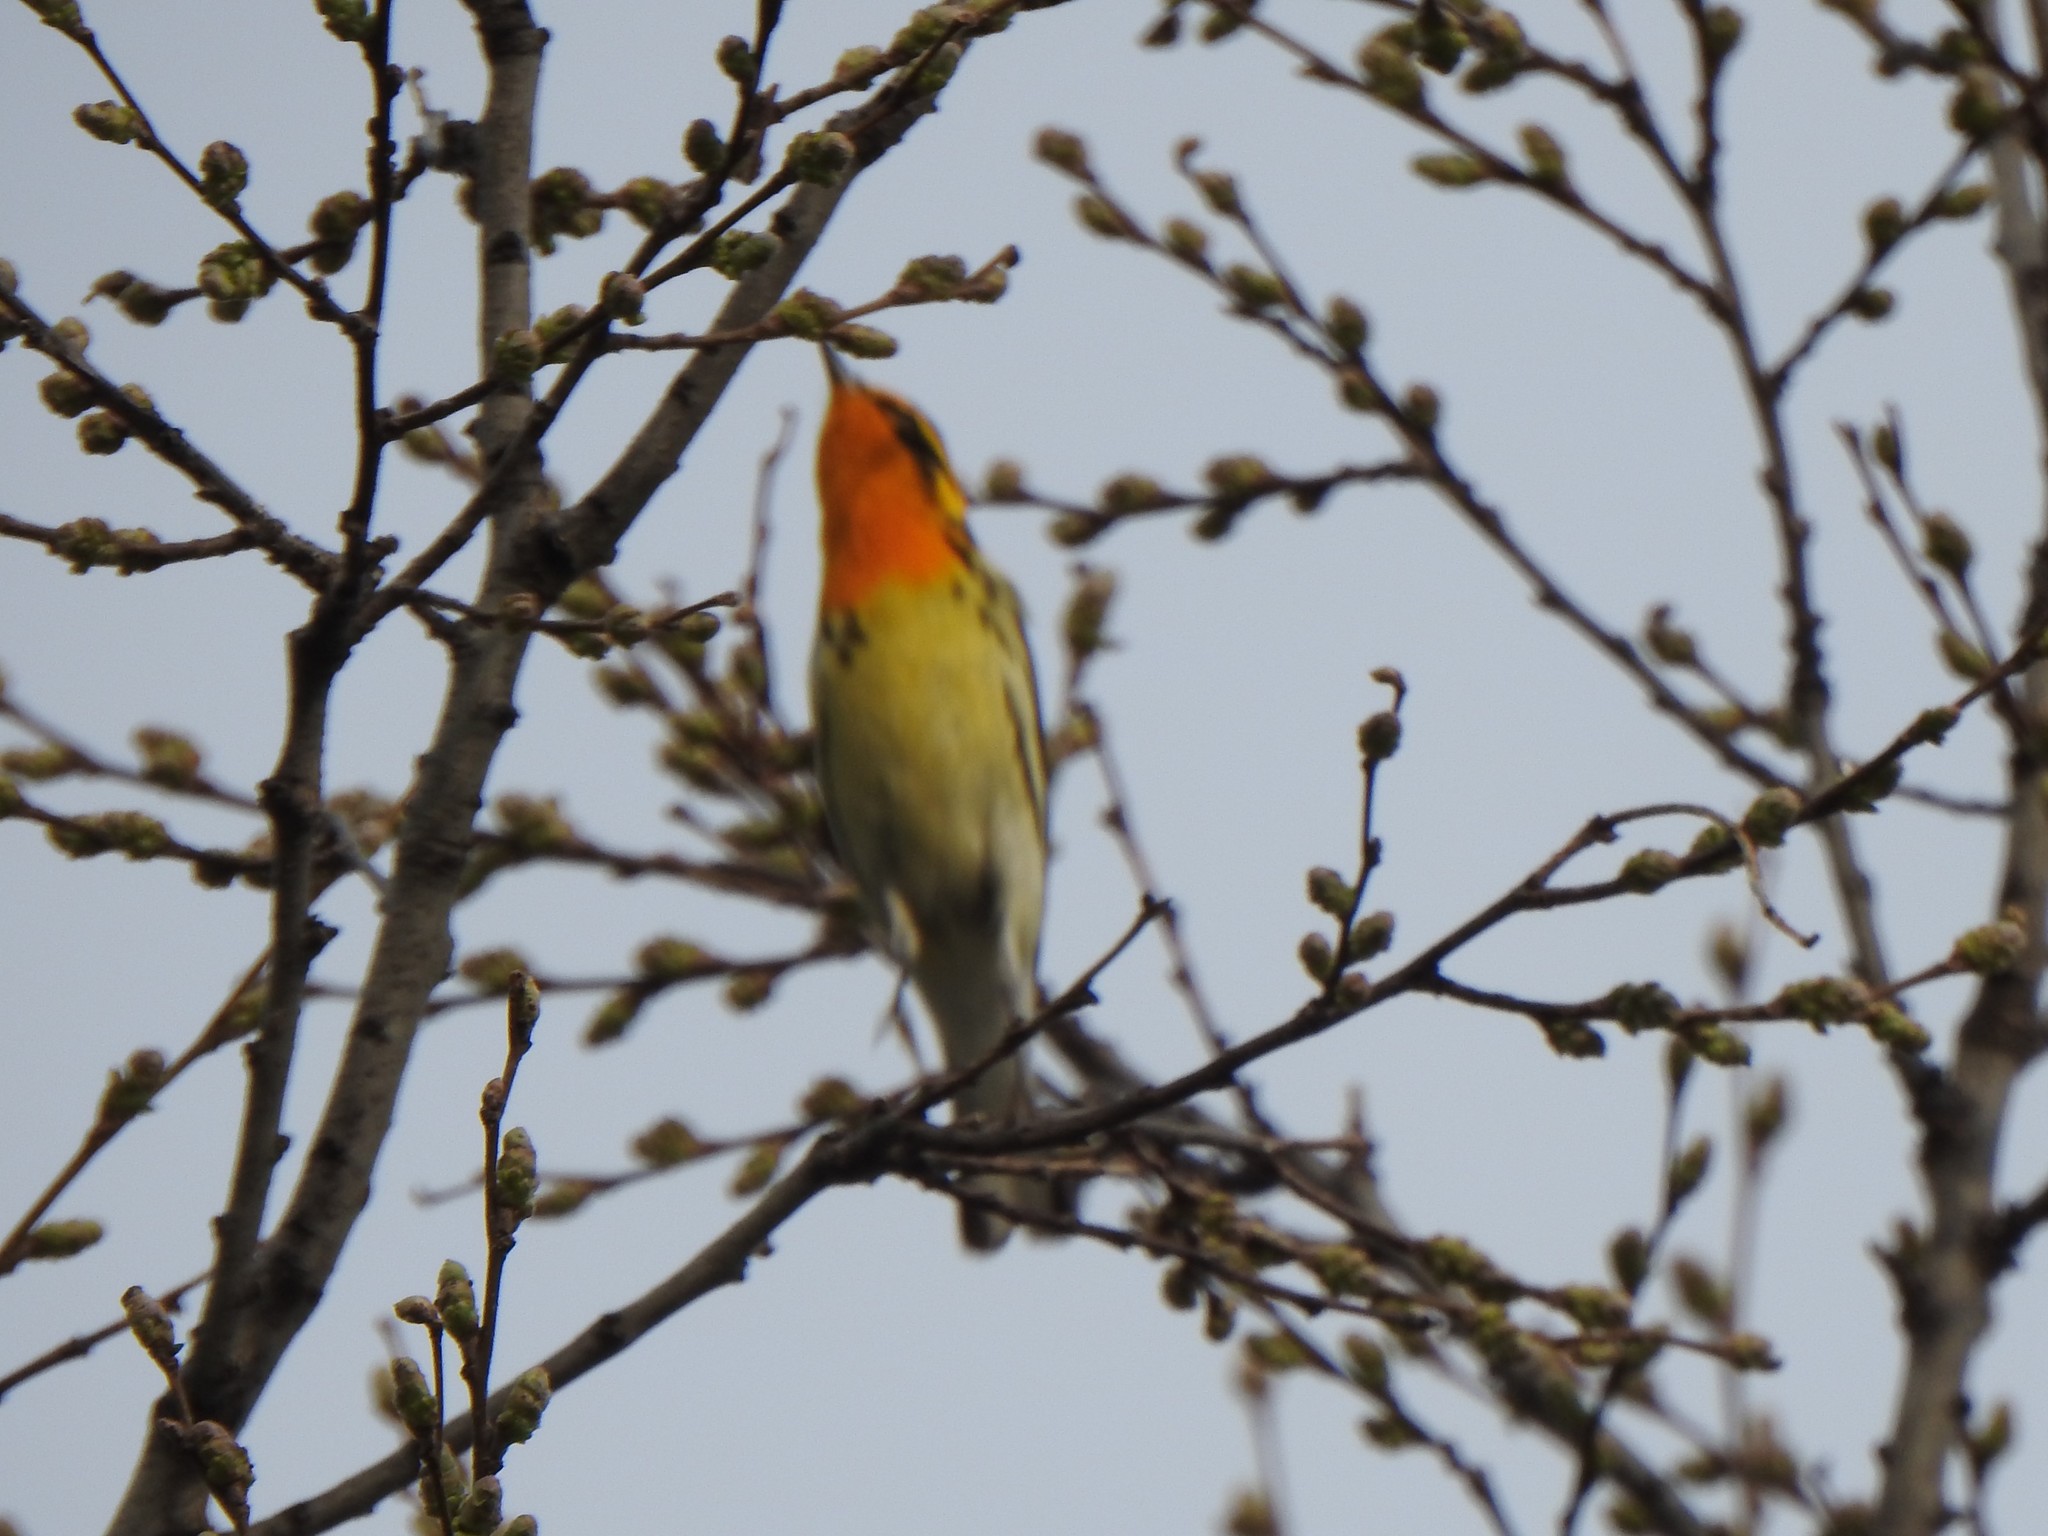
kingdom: Animalia
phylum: Chordata
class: Aves
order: Passeriformes
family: Parulidae
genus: Setophaga
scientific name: Setophaga fusca
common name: Blackburnian warbler
